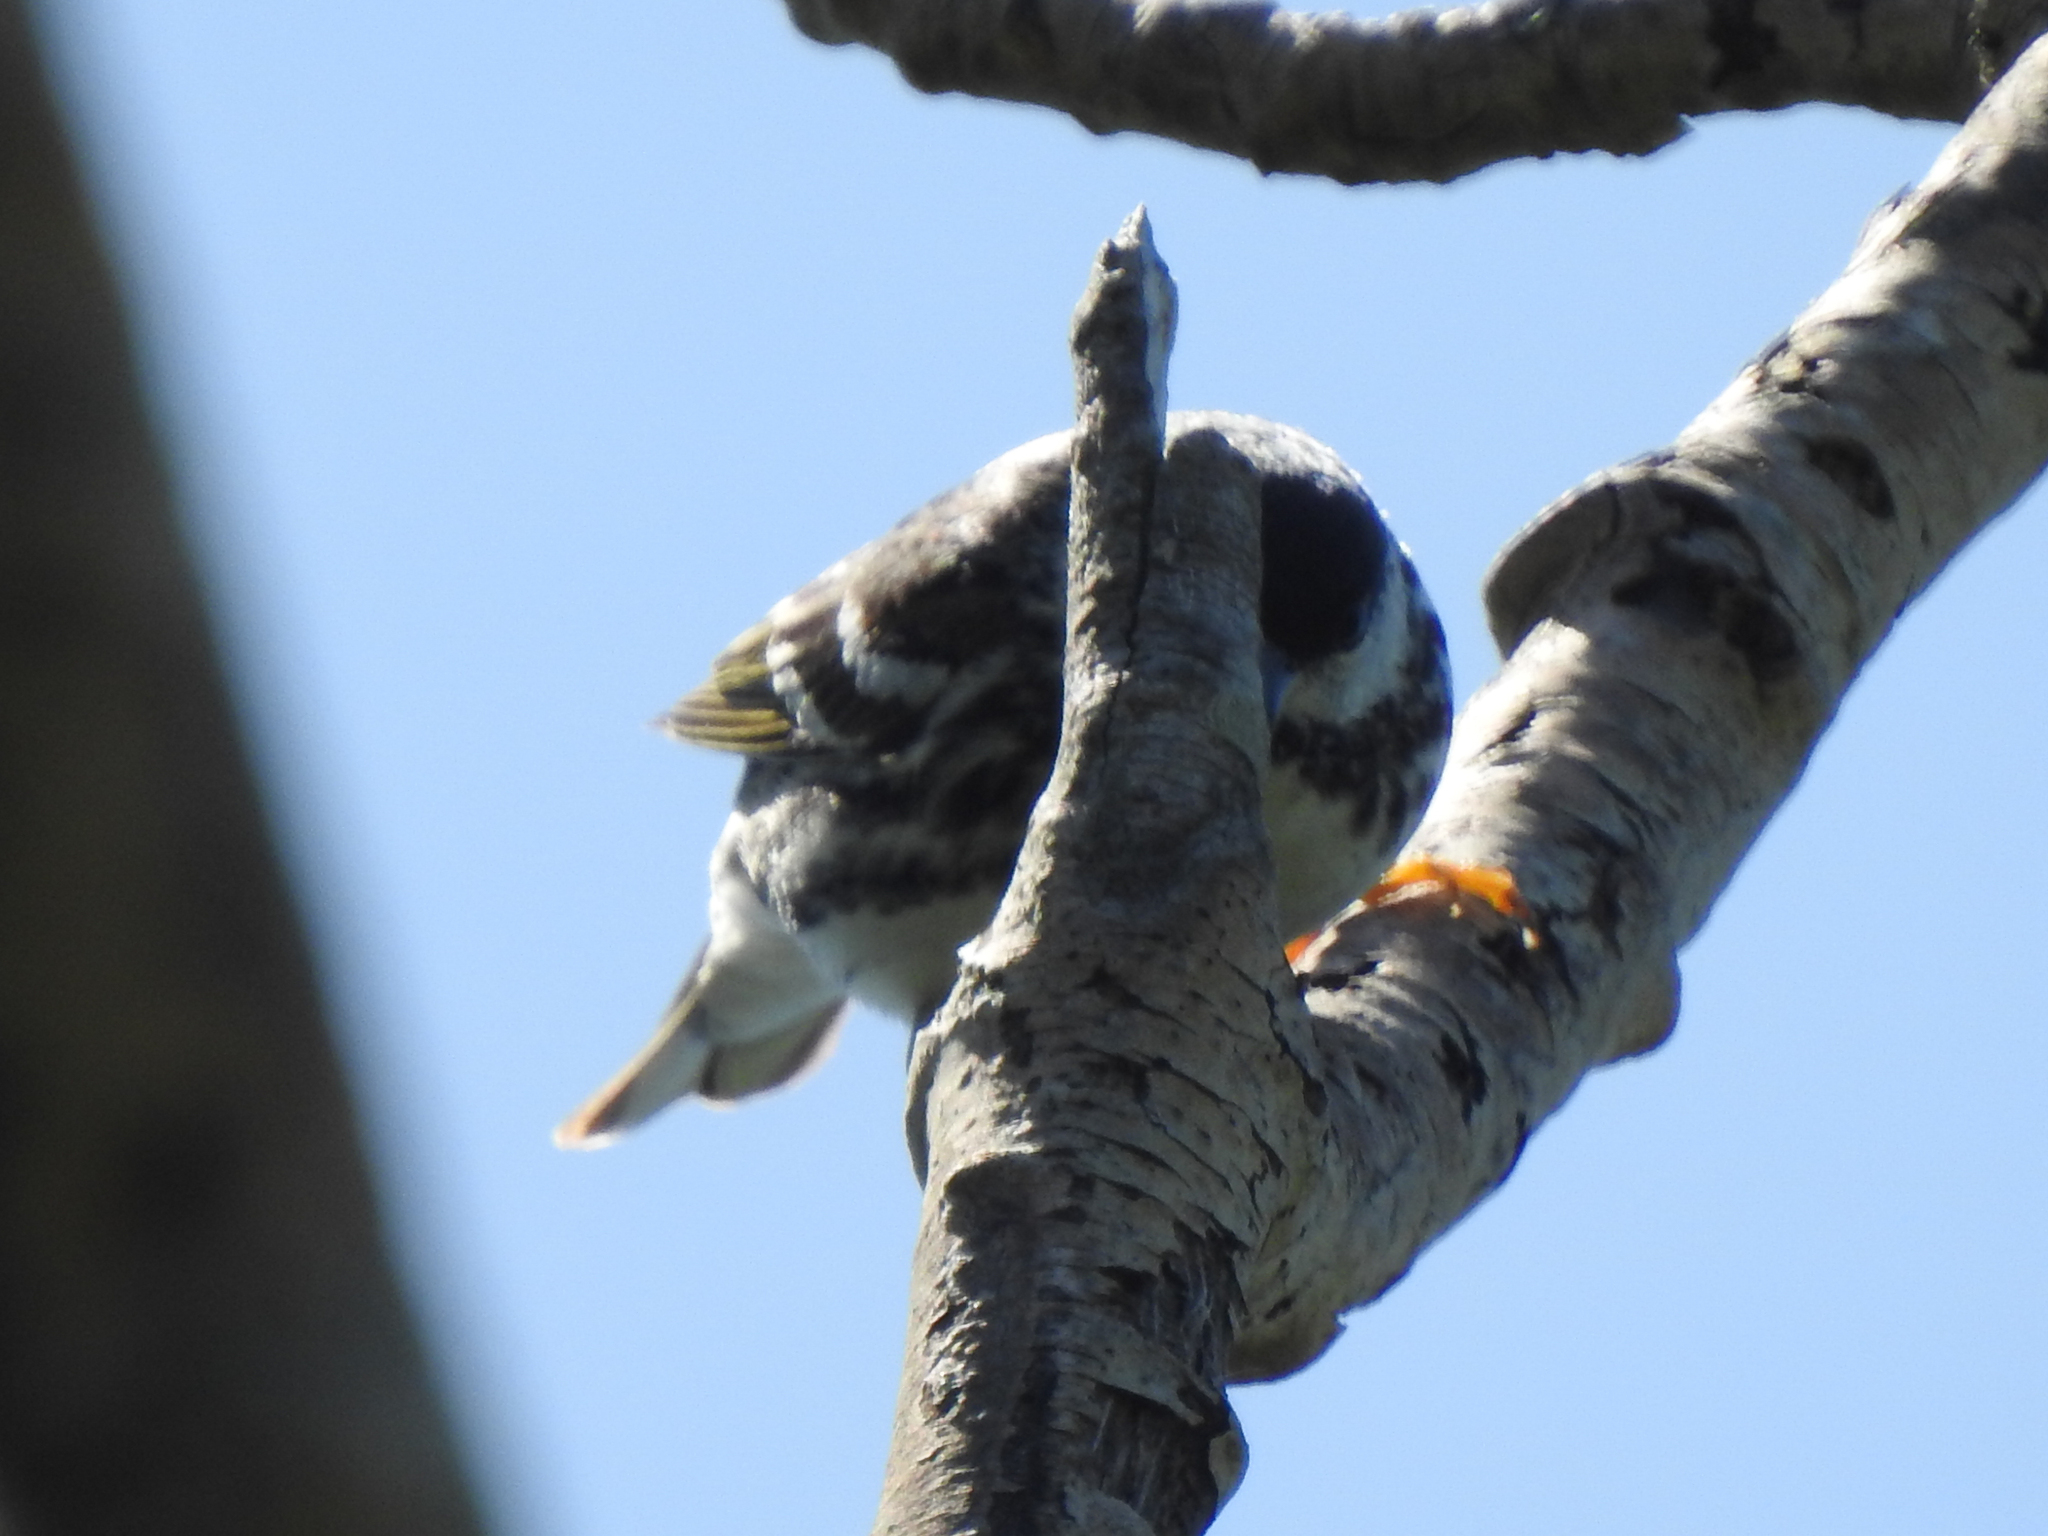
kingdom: Animalia
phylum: Chordata
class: Aves
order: Passeriformes
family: Parulidae
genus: Setophaga
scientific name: Setophaga striata
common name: Blackpoll warbler
